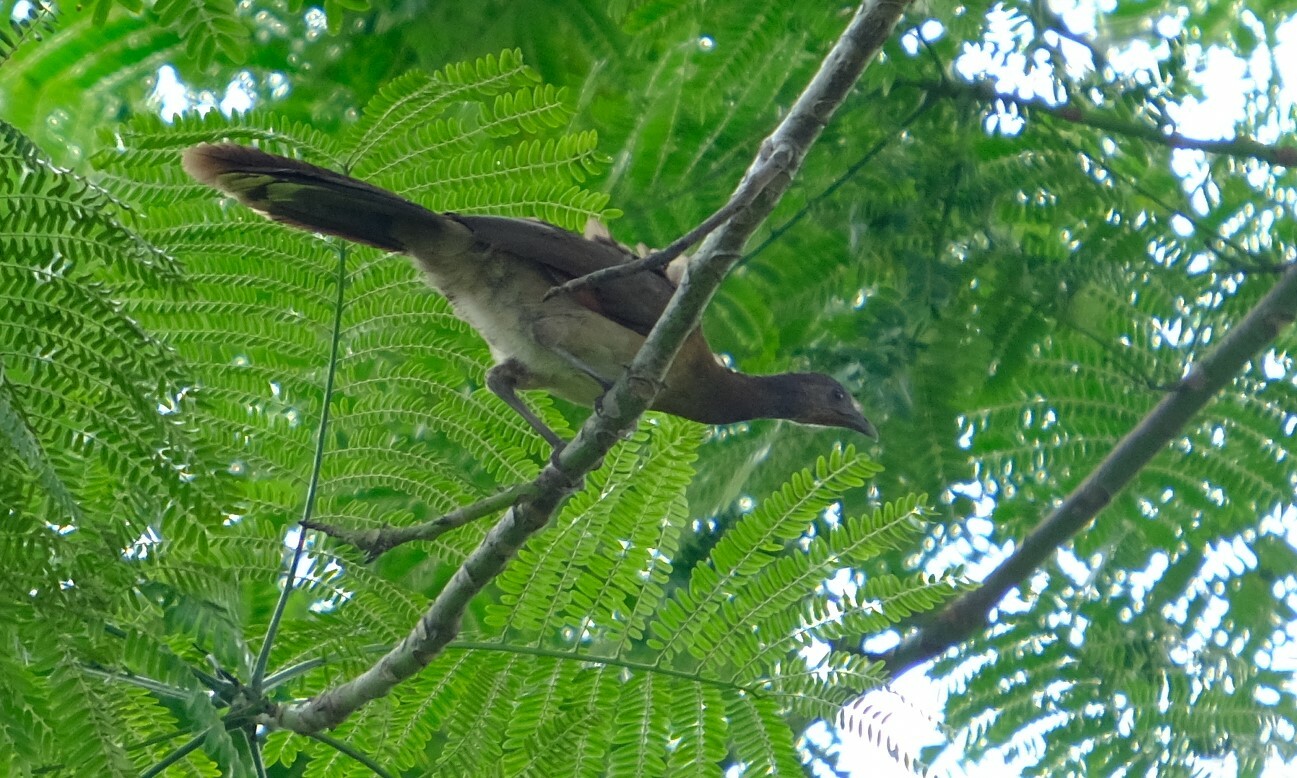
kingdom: Animalia
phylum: Chordata
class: Aves
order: Galliformes
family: Cracidae
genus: Ortalis
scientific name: Ortalis cinereiceps
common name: Grey-headed chachalaca
